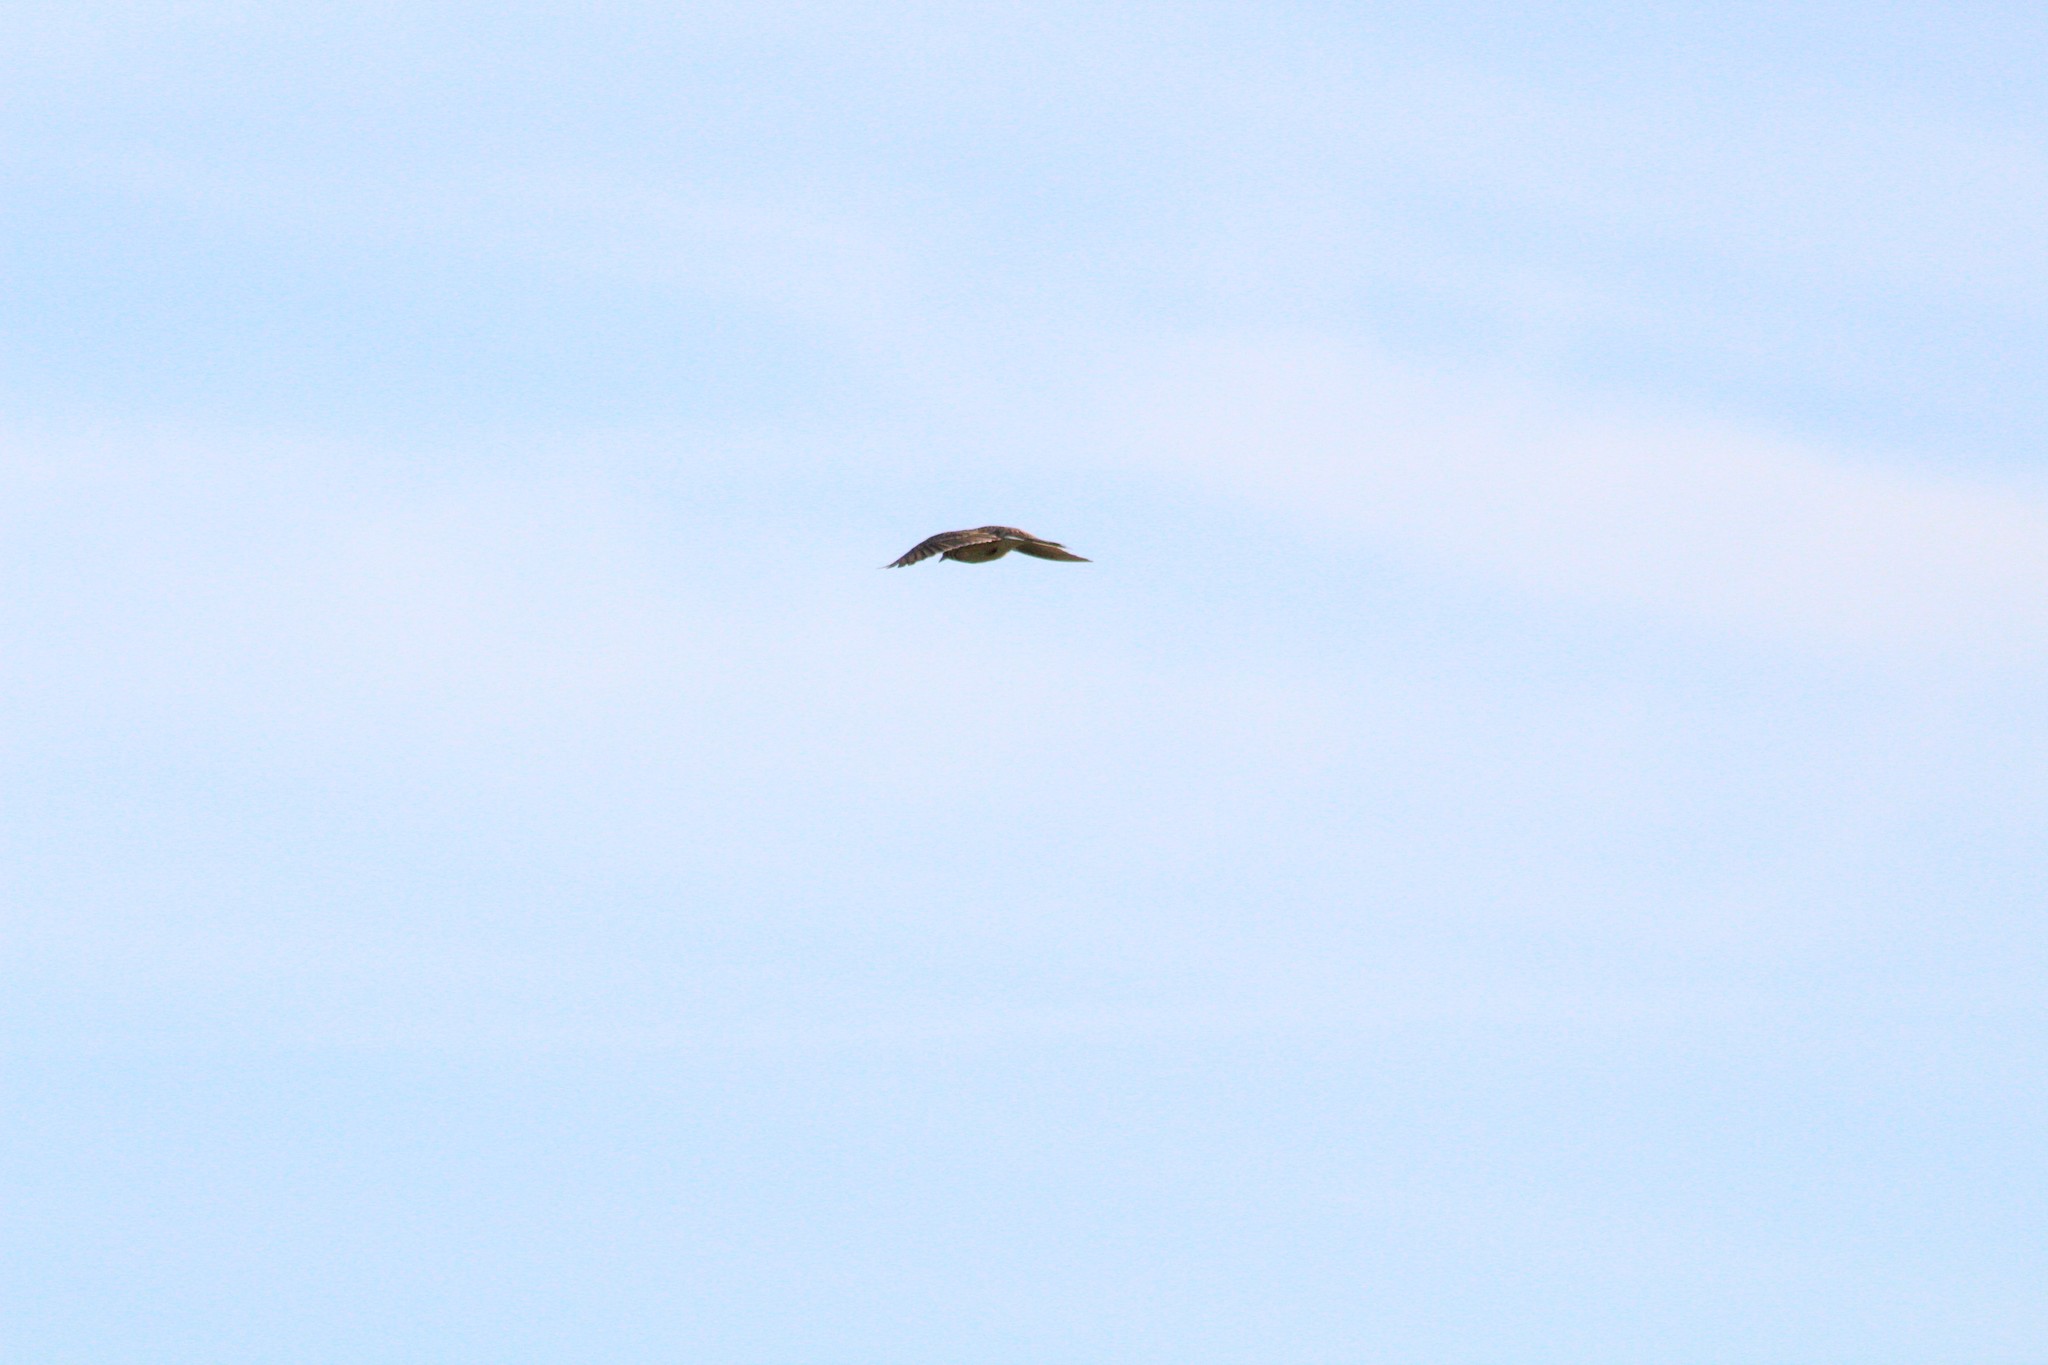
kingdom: Animalia
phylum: Chordata
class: Aves
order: Passeriformes
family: Alaudidae
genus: Alauda
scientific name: Alauda arvensis
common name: Eurasian skylark
